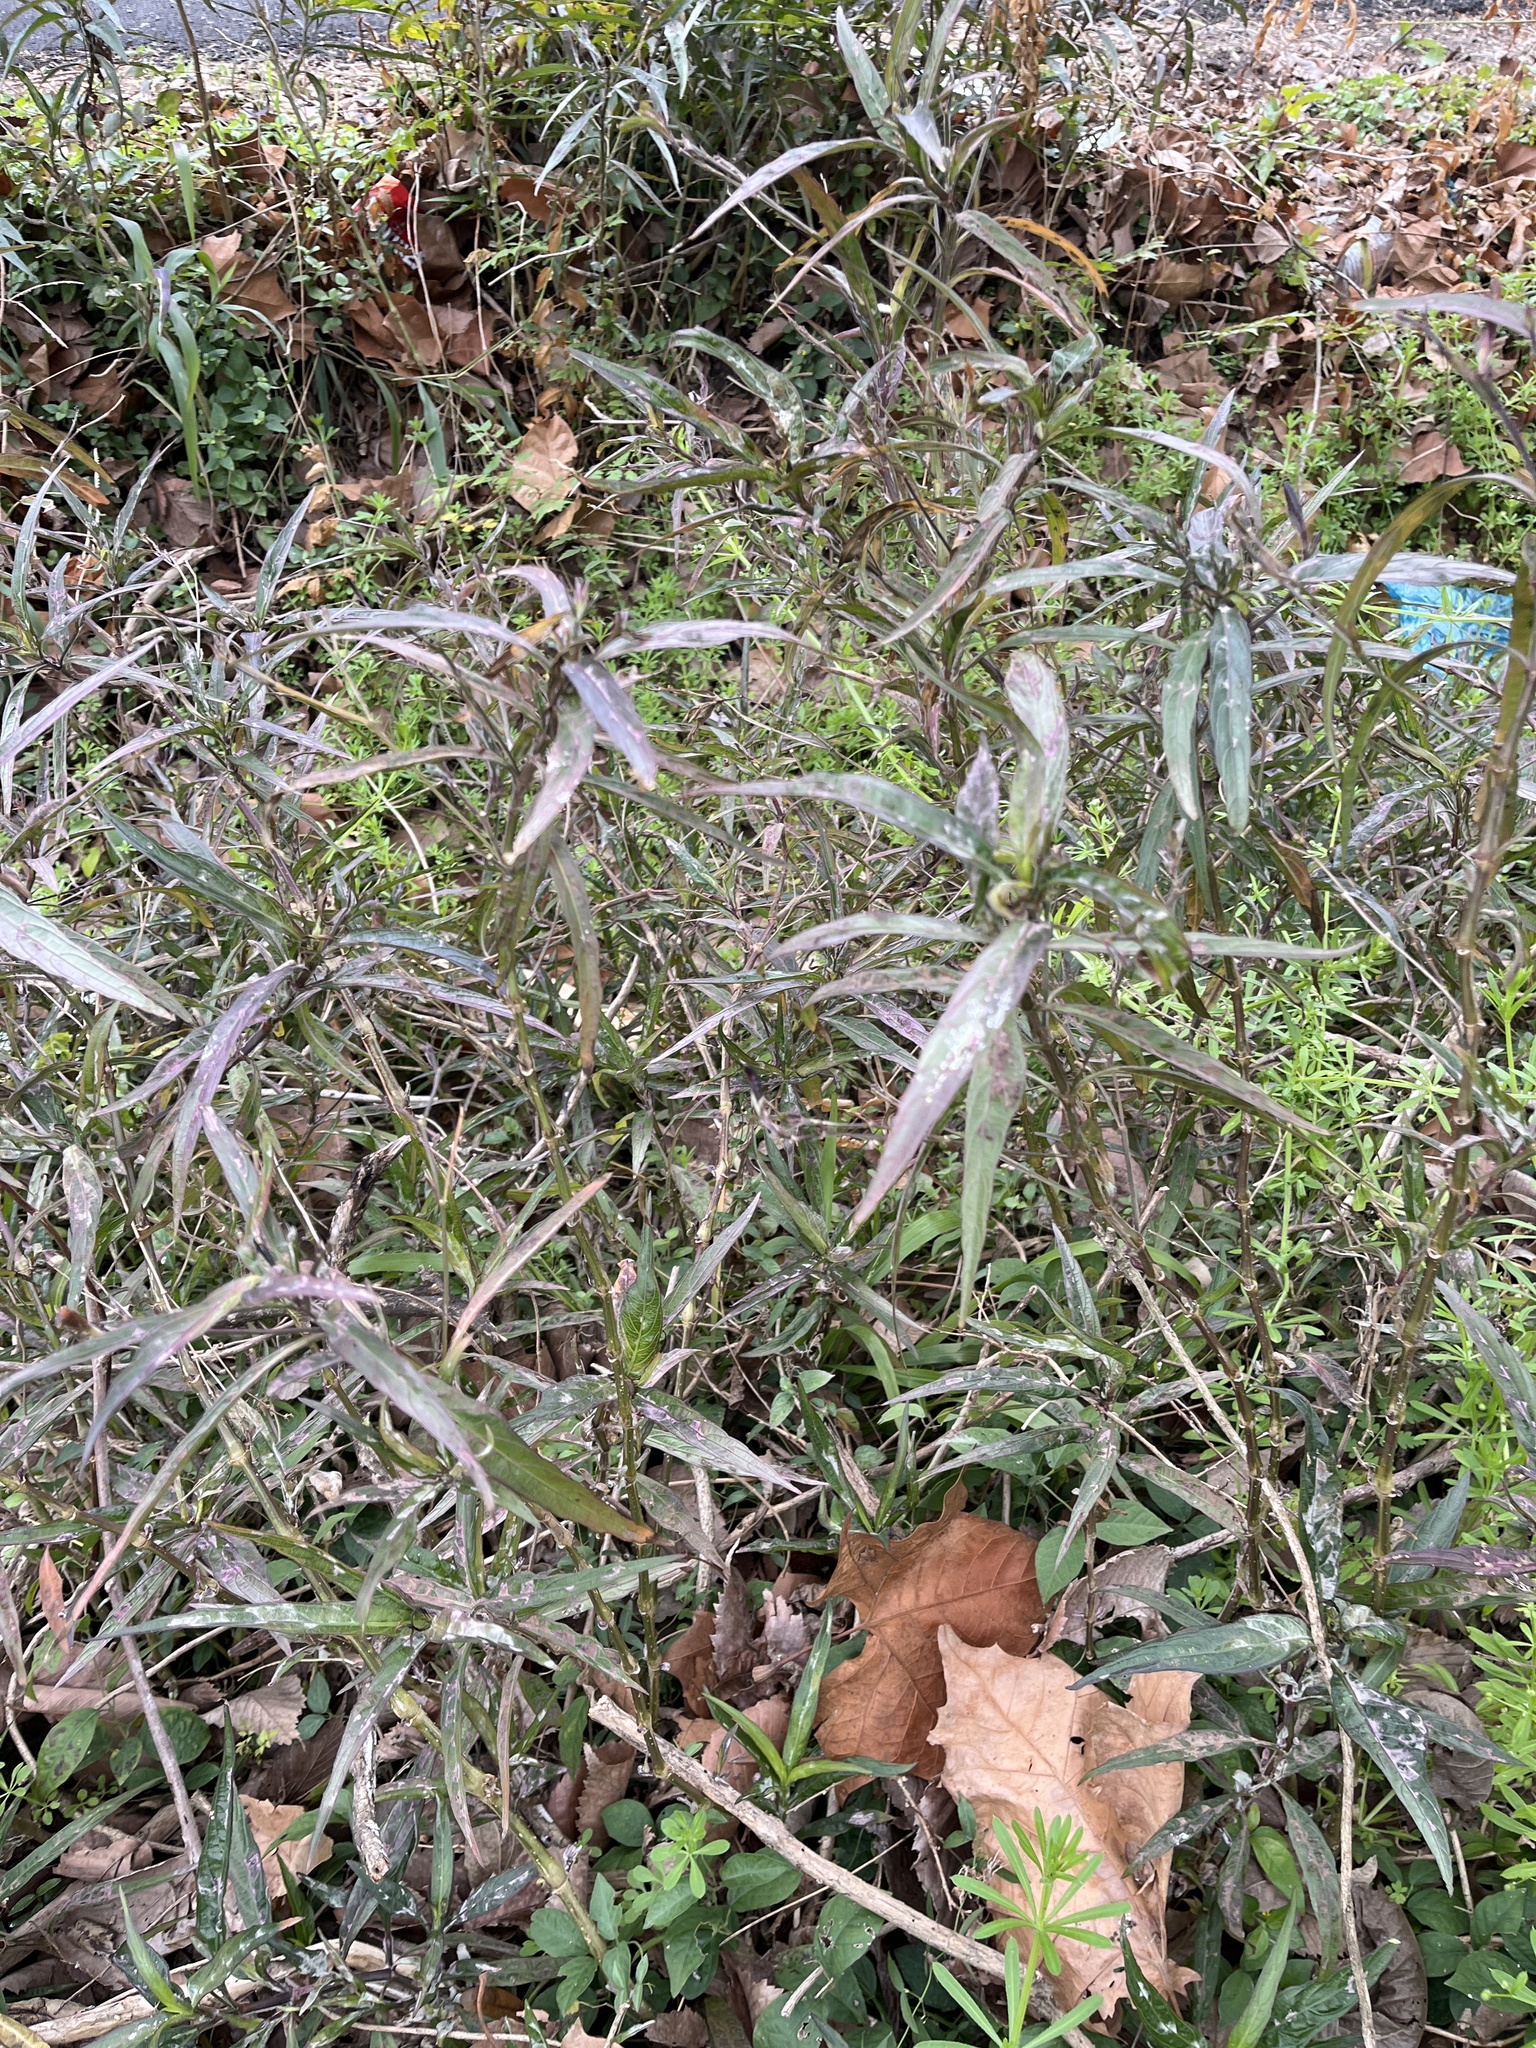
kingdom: Plantae
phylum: Tracheophyta
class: Magnoliopsida
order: Lamiales
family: Acanthaceae
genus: Ruellia
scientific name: Ruellia simplex
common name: Softseed wild petunia
